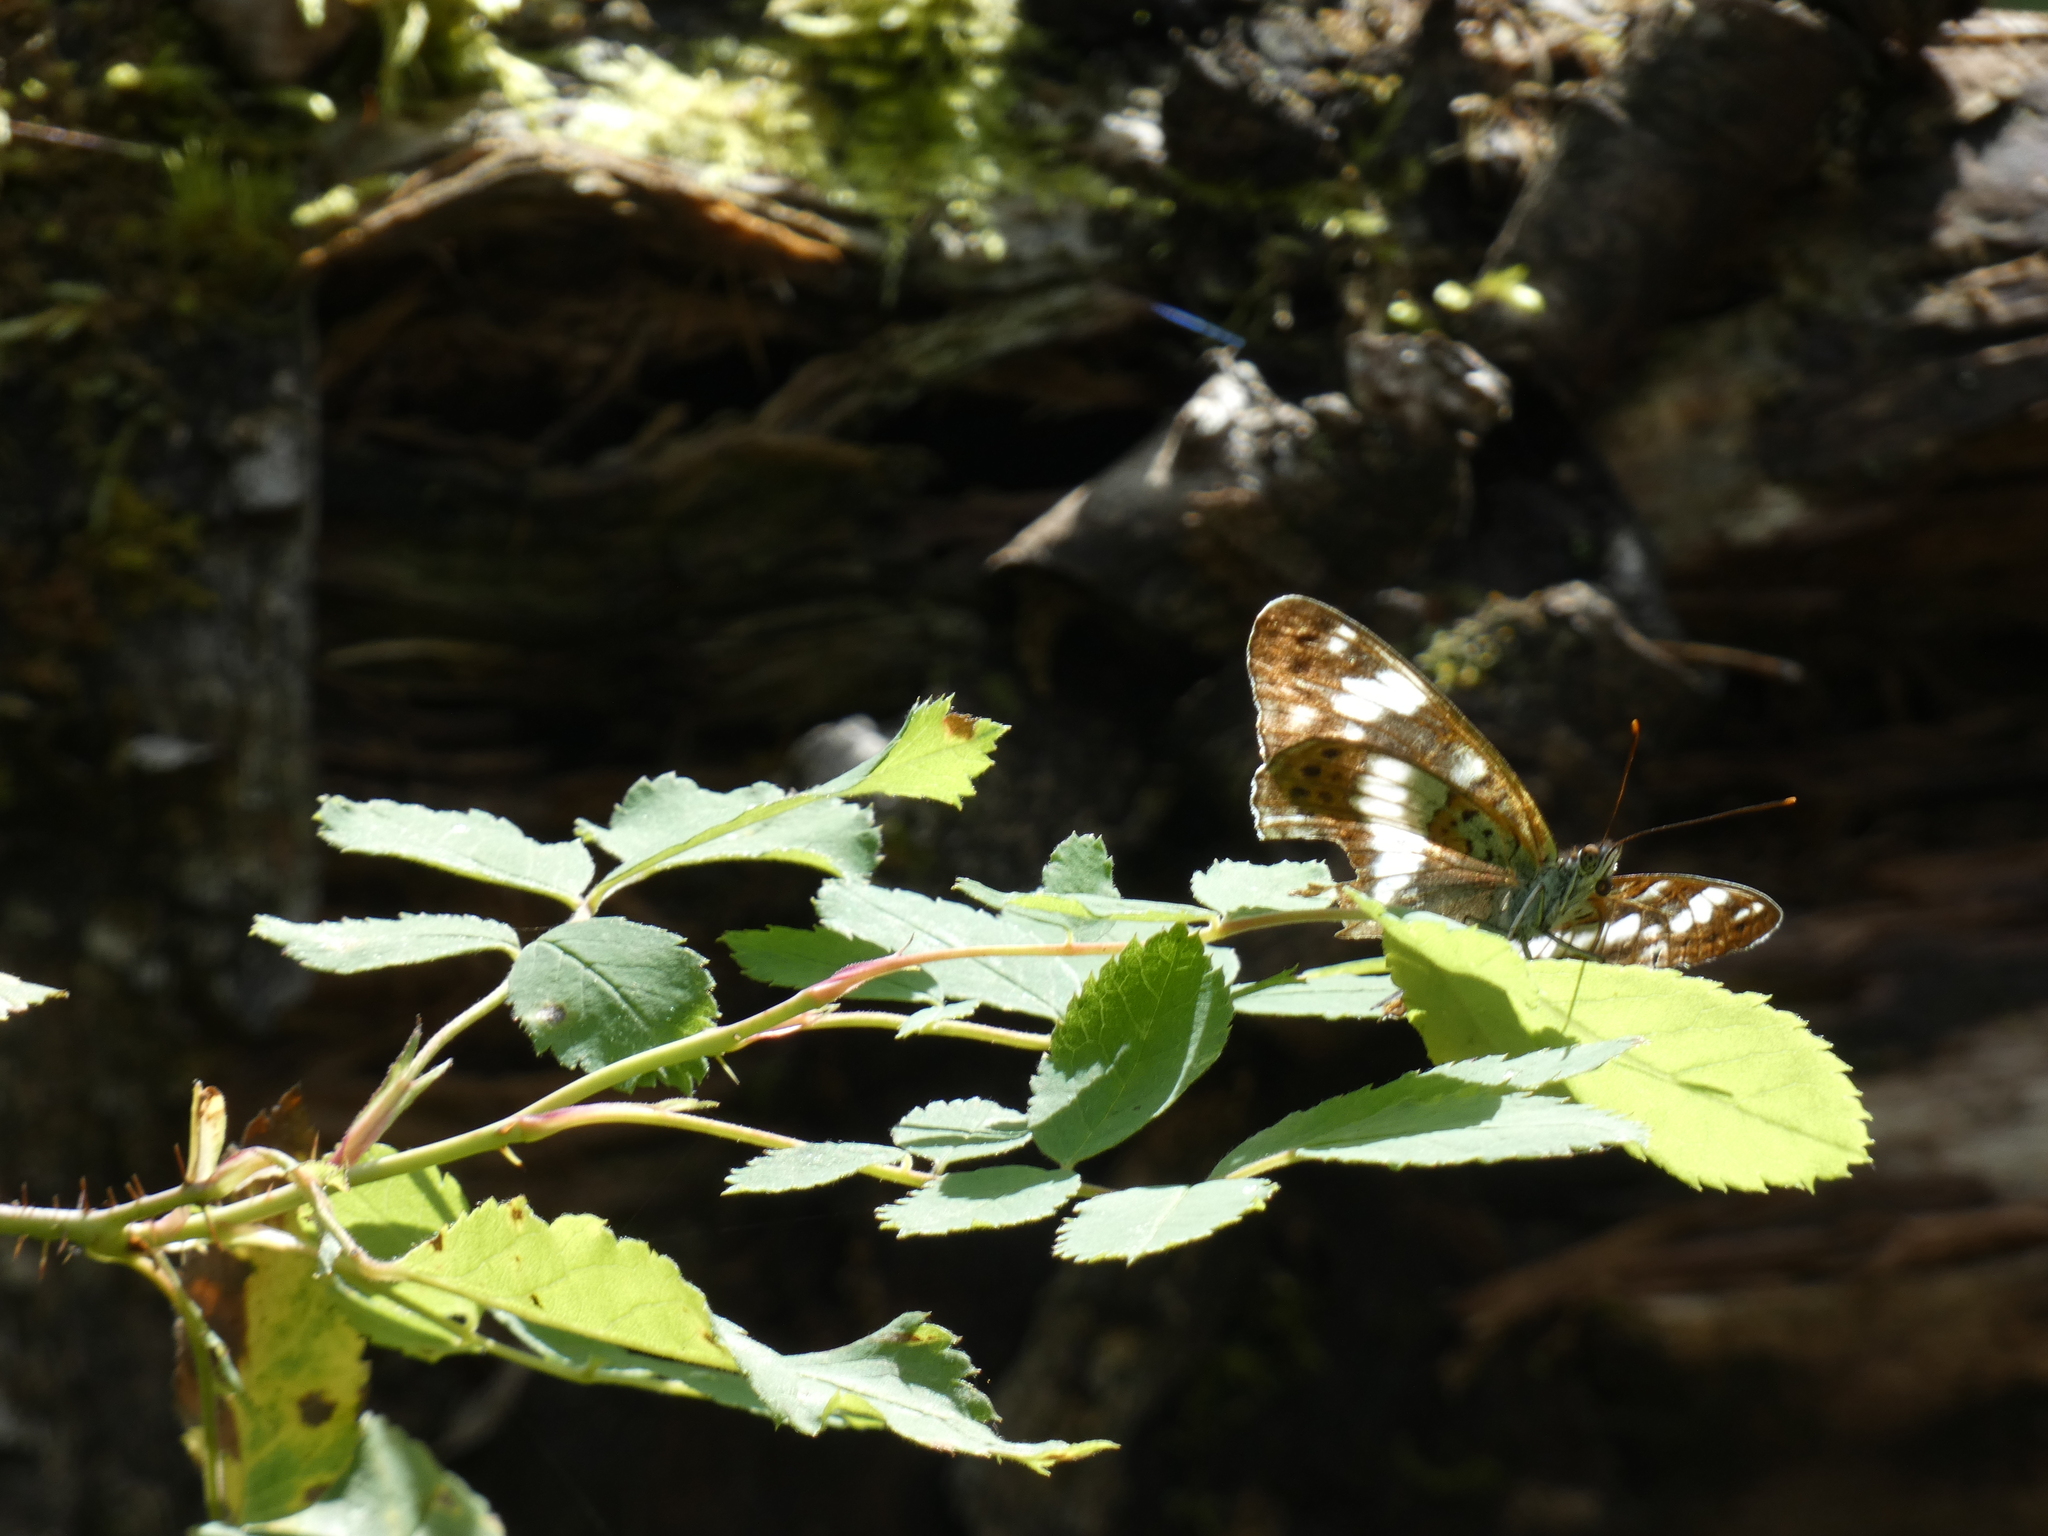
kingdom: Animalia
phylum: Arthropoda
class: Insecta
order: Lepidoptera
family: Nymphalidae
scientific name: Nymphalidae
